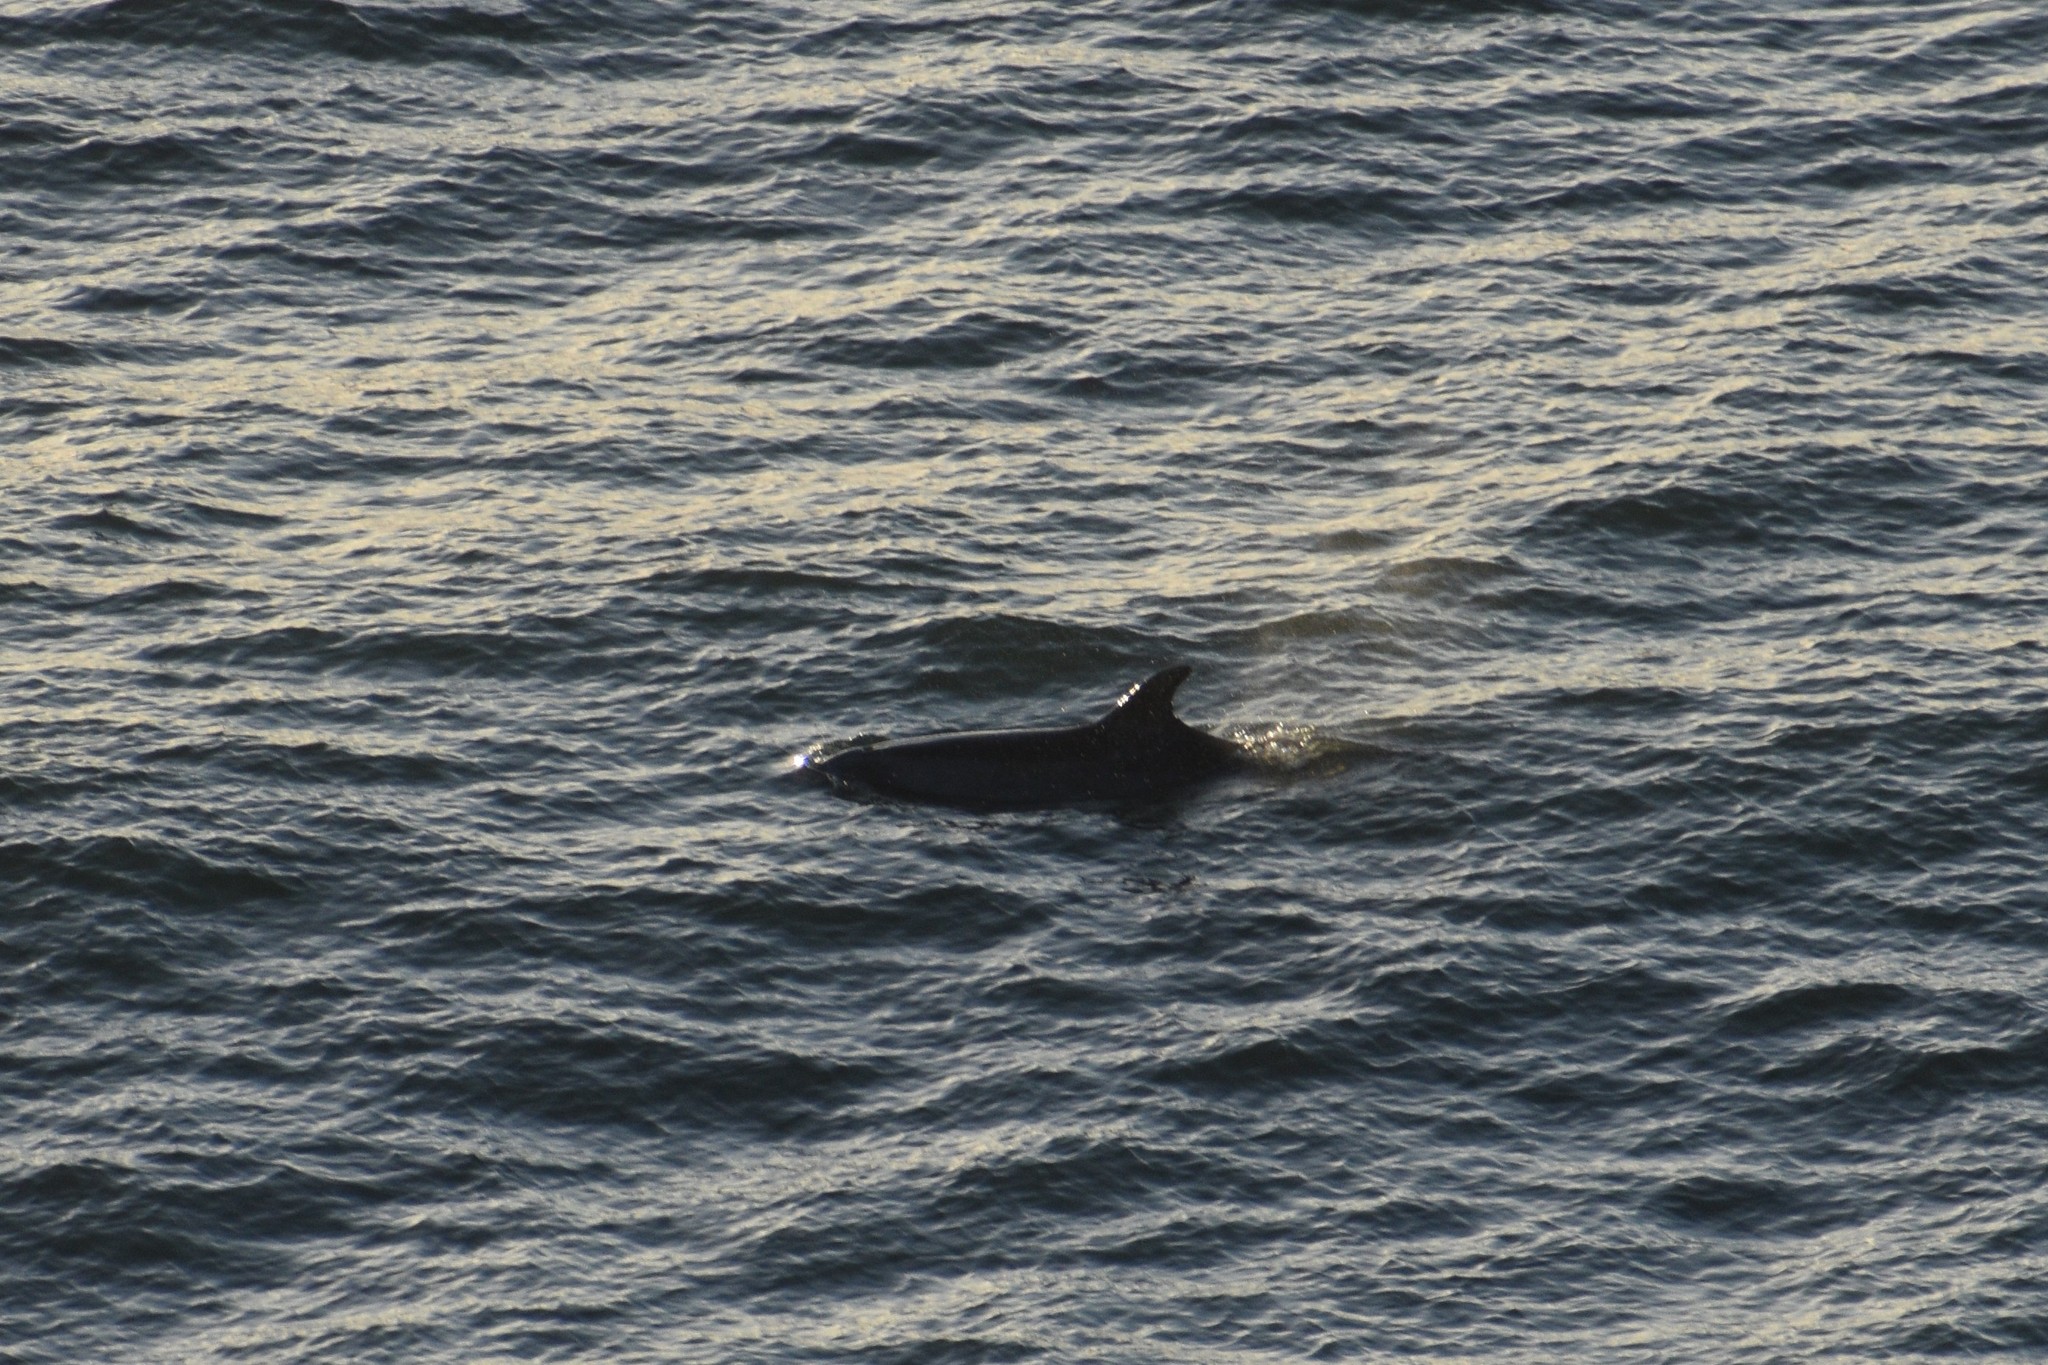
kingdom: Animalia
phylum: Chordata
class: Mammalia
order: Cetacea
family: Delphinidae
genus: Tursiops
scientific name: Tursiops truncatus
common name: Bottlenose dolphin
